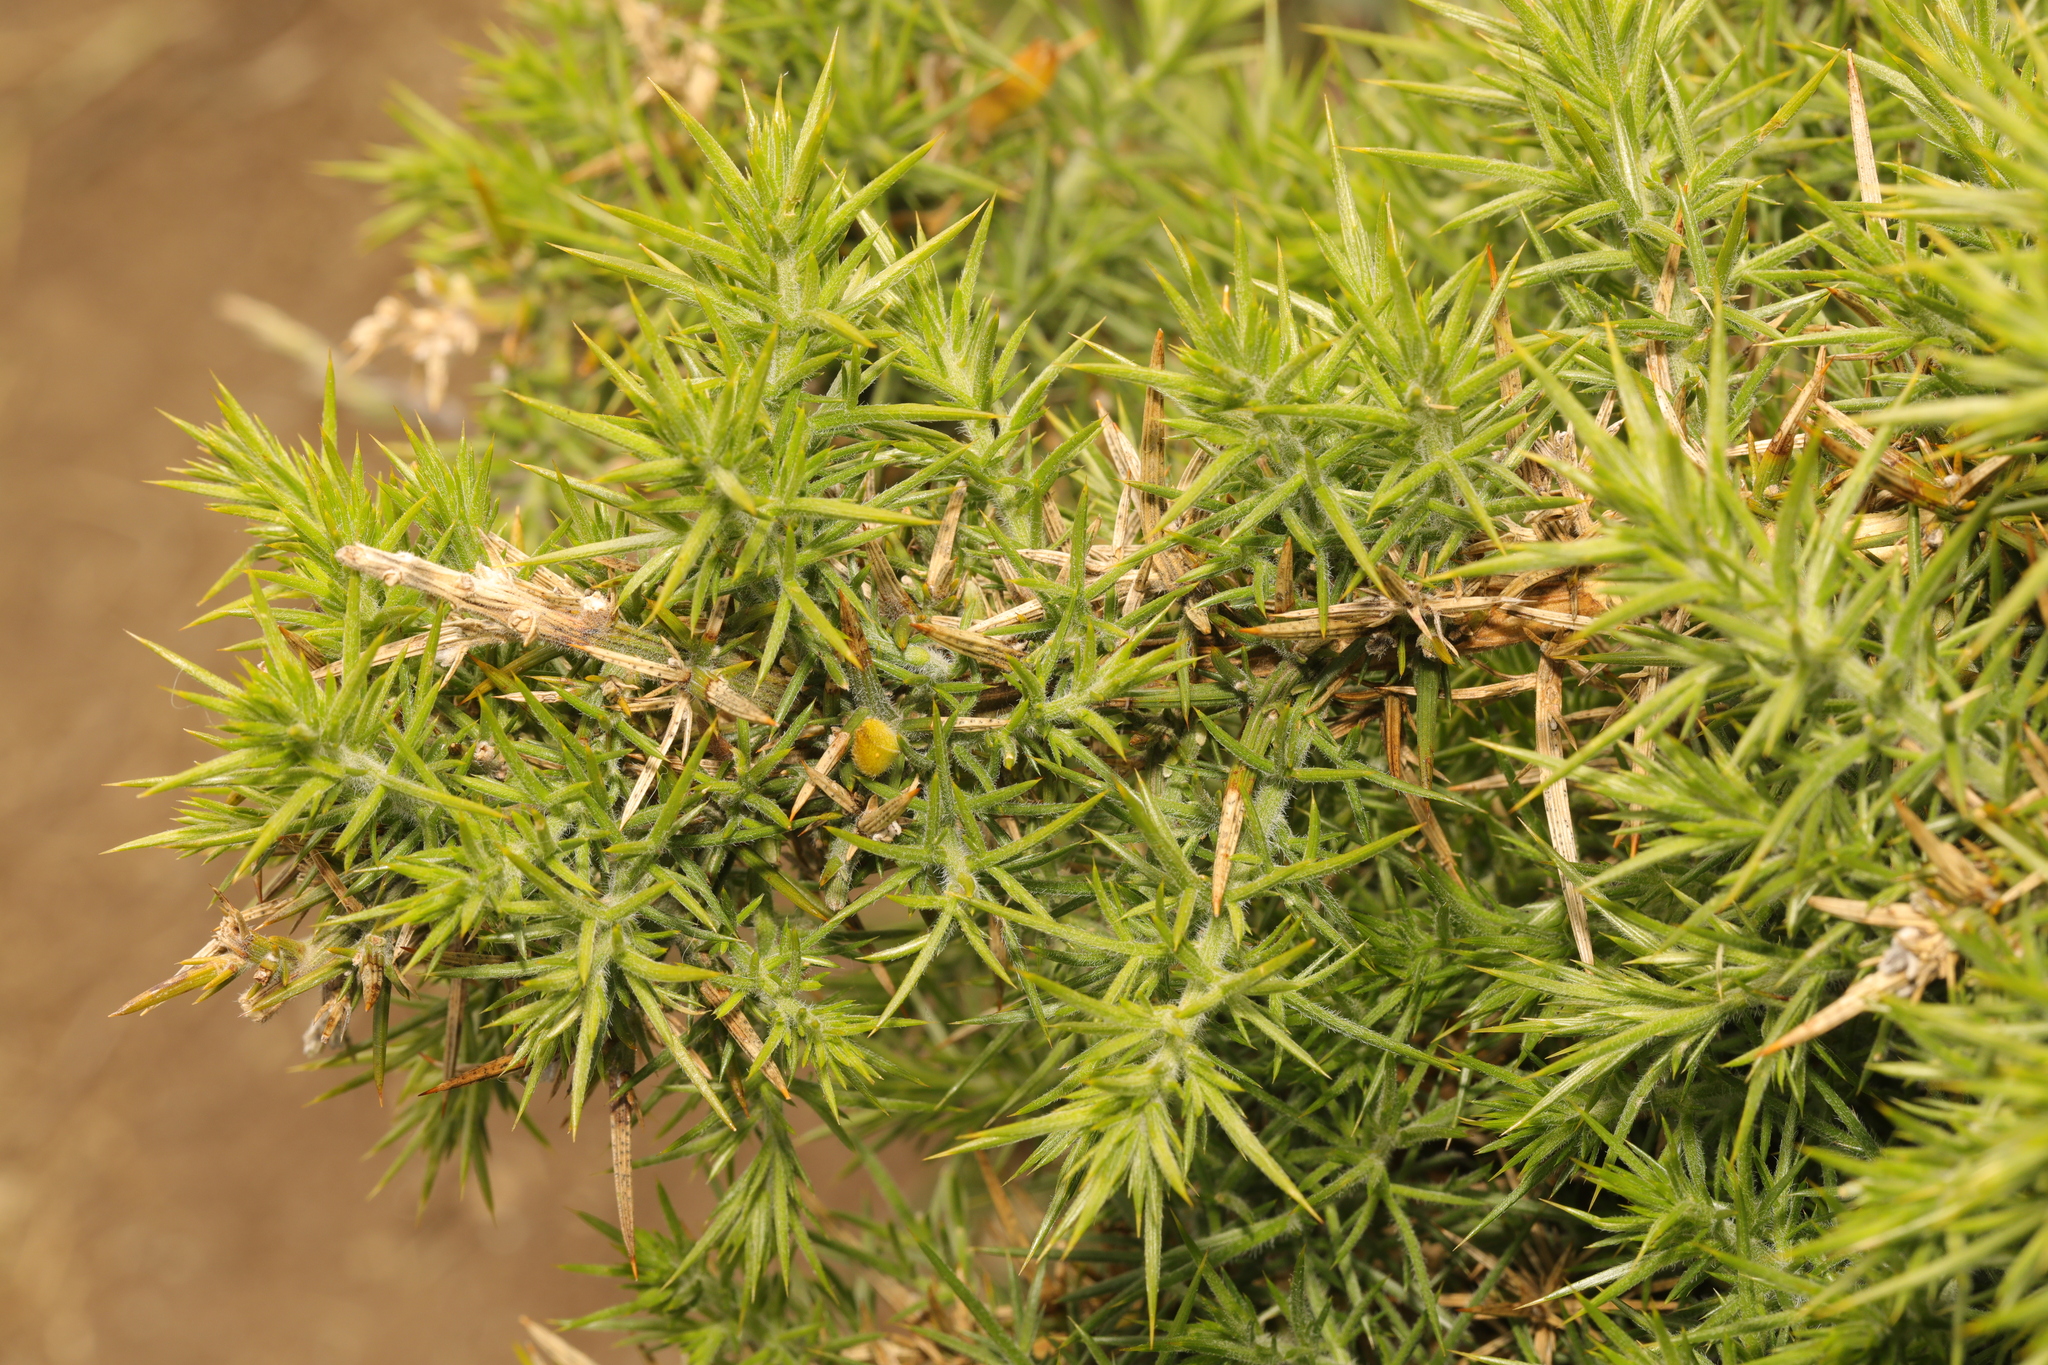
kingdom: Plantae
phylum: Tracheophyta
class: Magnoliopsida
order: Fabales
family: Fabaceae
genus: Ulex
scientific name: Ulex europaeus
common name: Common gorse
